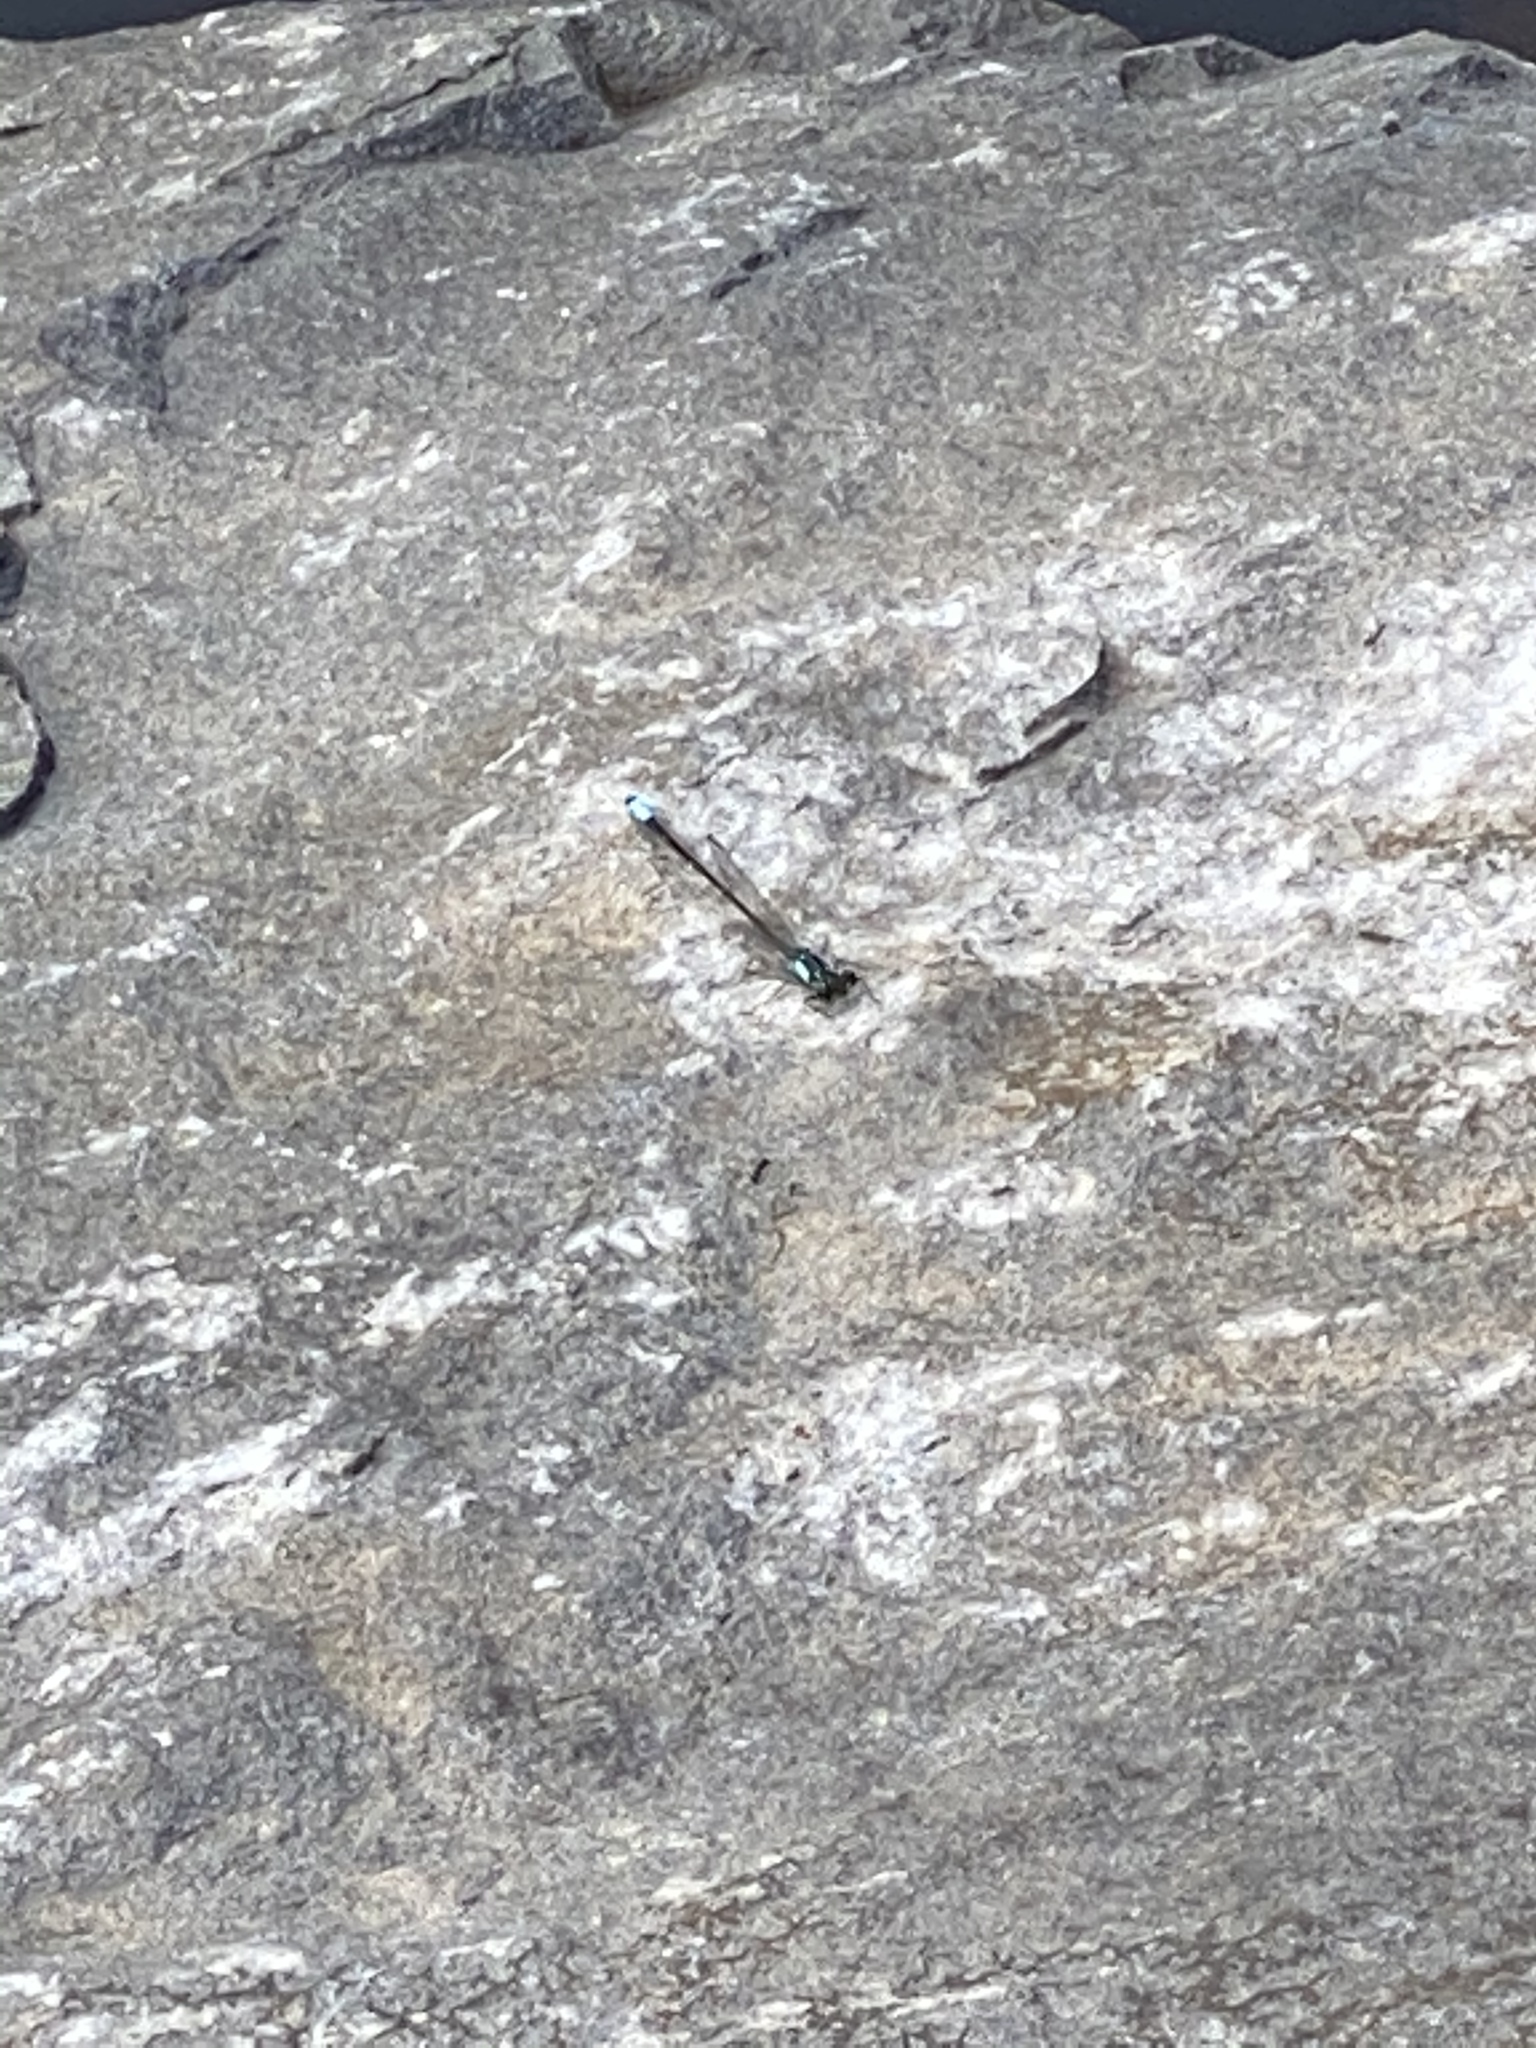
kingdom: Animalia
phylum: Arthropoda
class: Insecta
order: Odonata
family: Coenagrionidae
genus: Ischnura
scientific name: Ischnura cervula
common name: Pacific forktail
